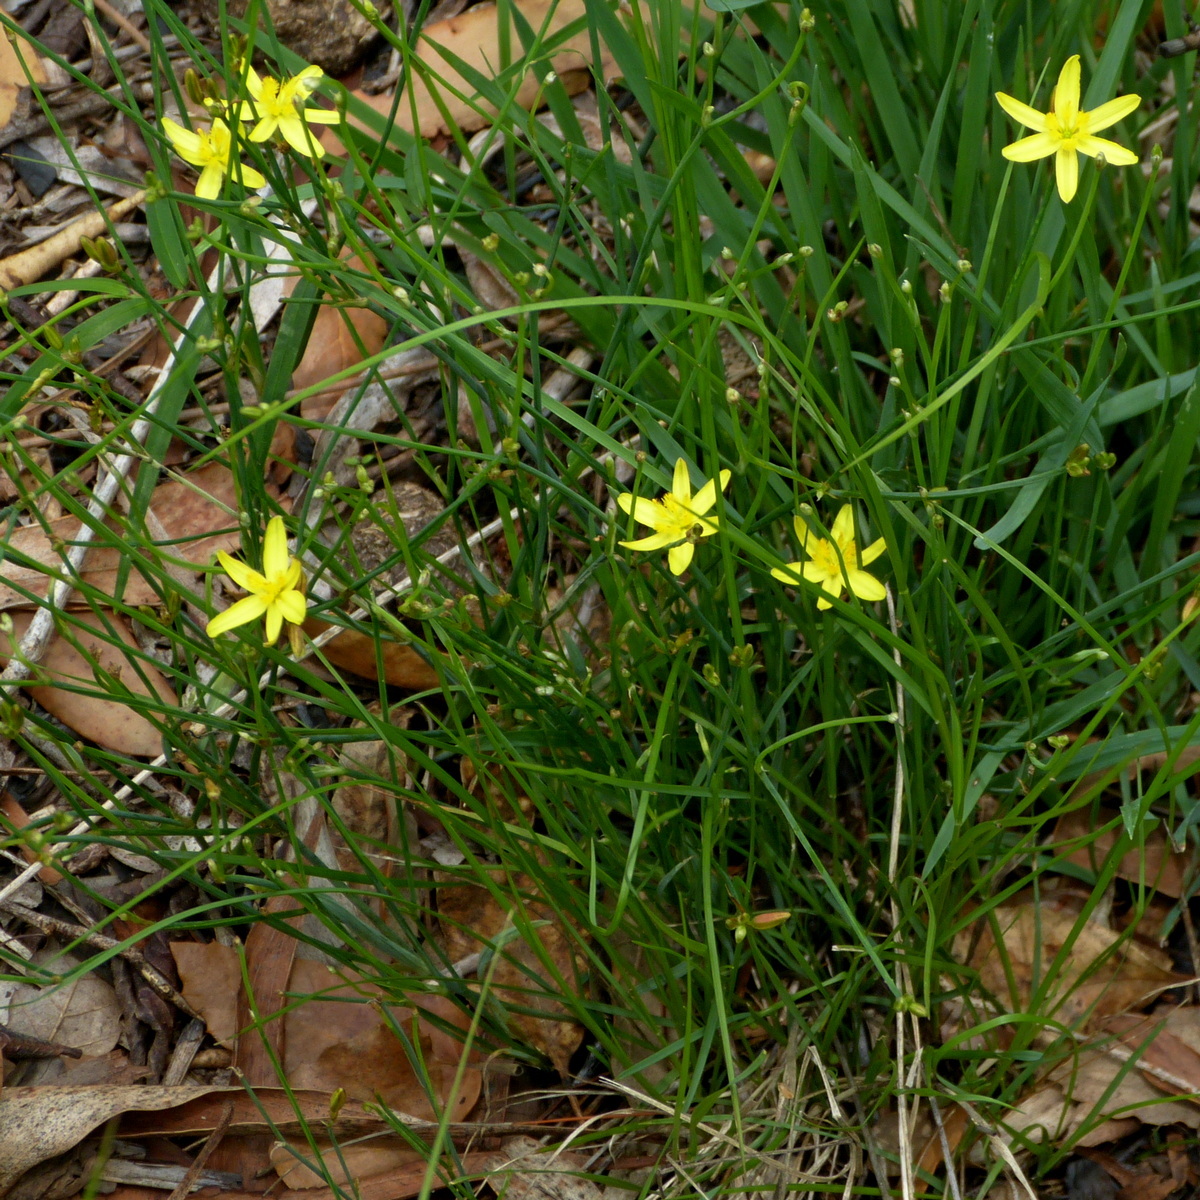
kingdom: Plantae
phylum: Tracheophyta
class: Liliopsida
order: Asparagales
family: Asphodelaceae
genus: Tricoryne
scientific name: Tricoryne elatior
